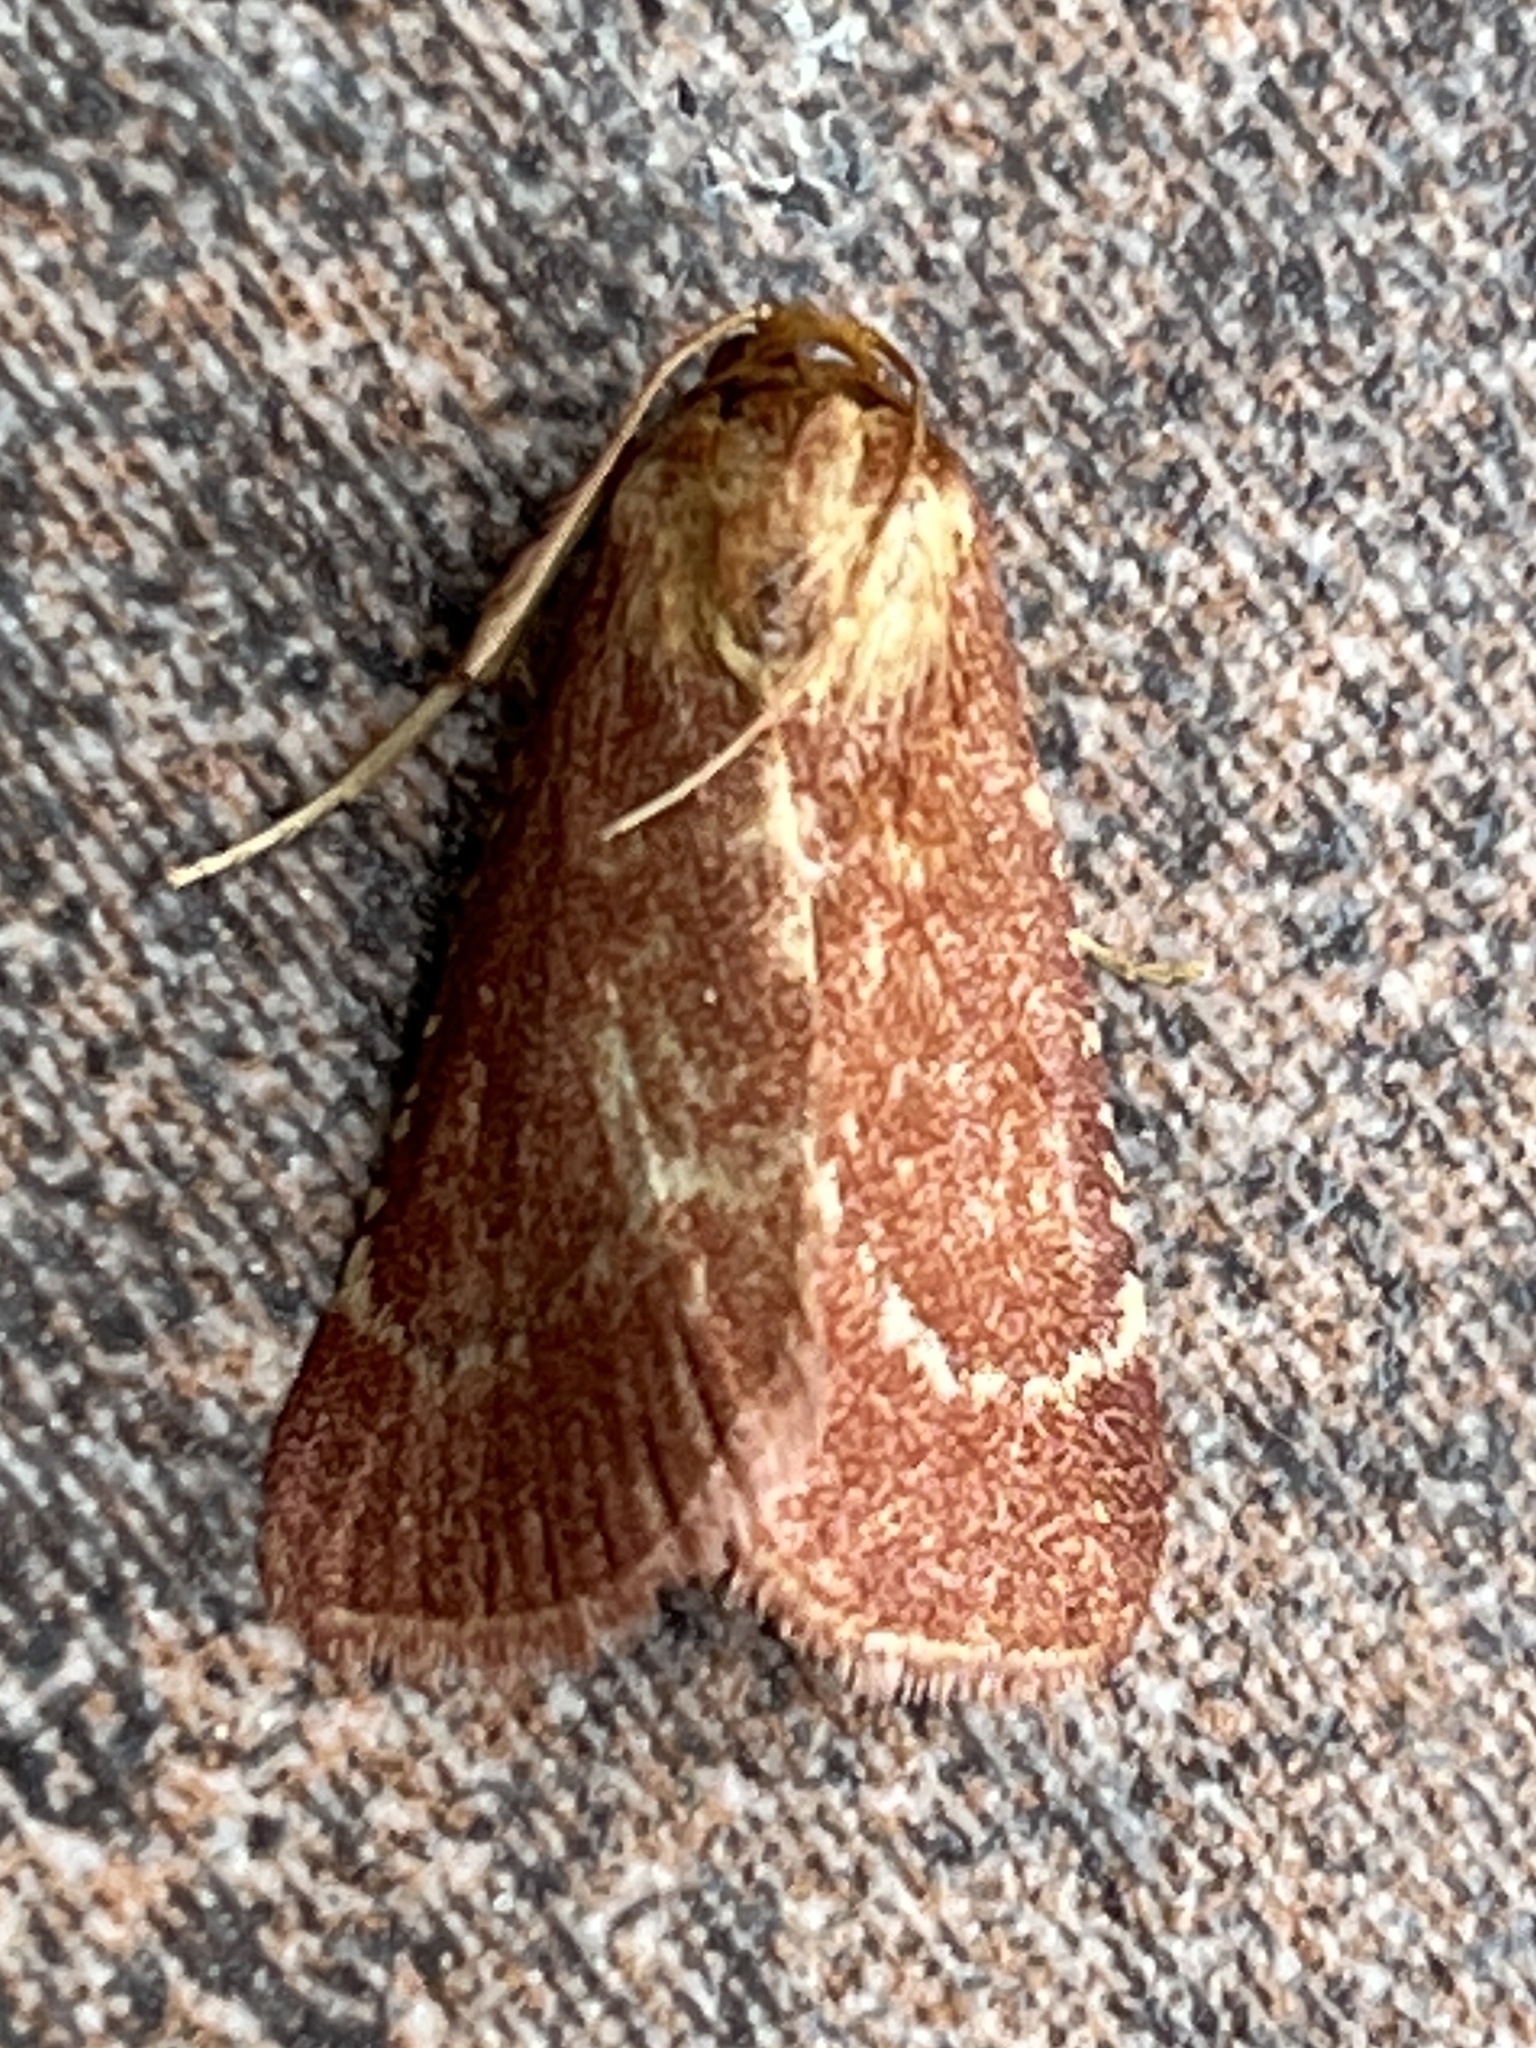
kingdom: Animalia
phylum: Arthropoda
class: Insecta
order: Lepidoptera
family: Pyralidae
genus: Bostra
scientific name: Bostra dipectinialis
